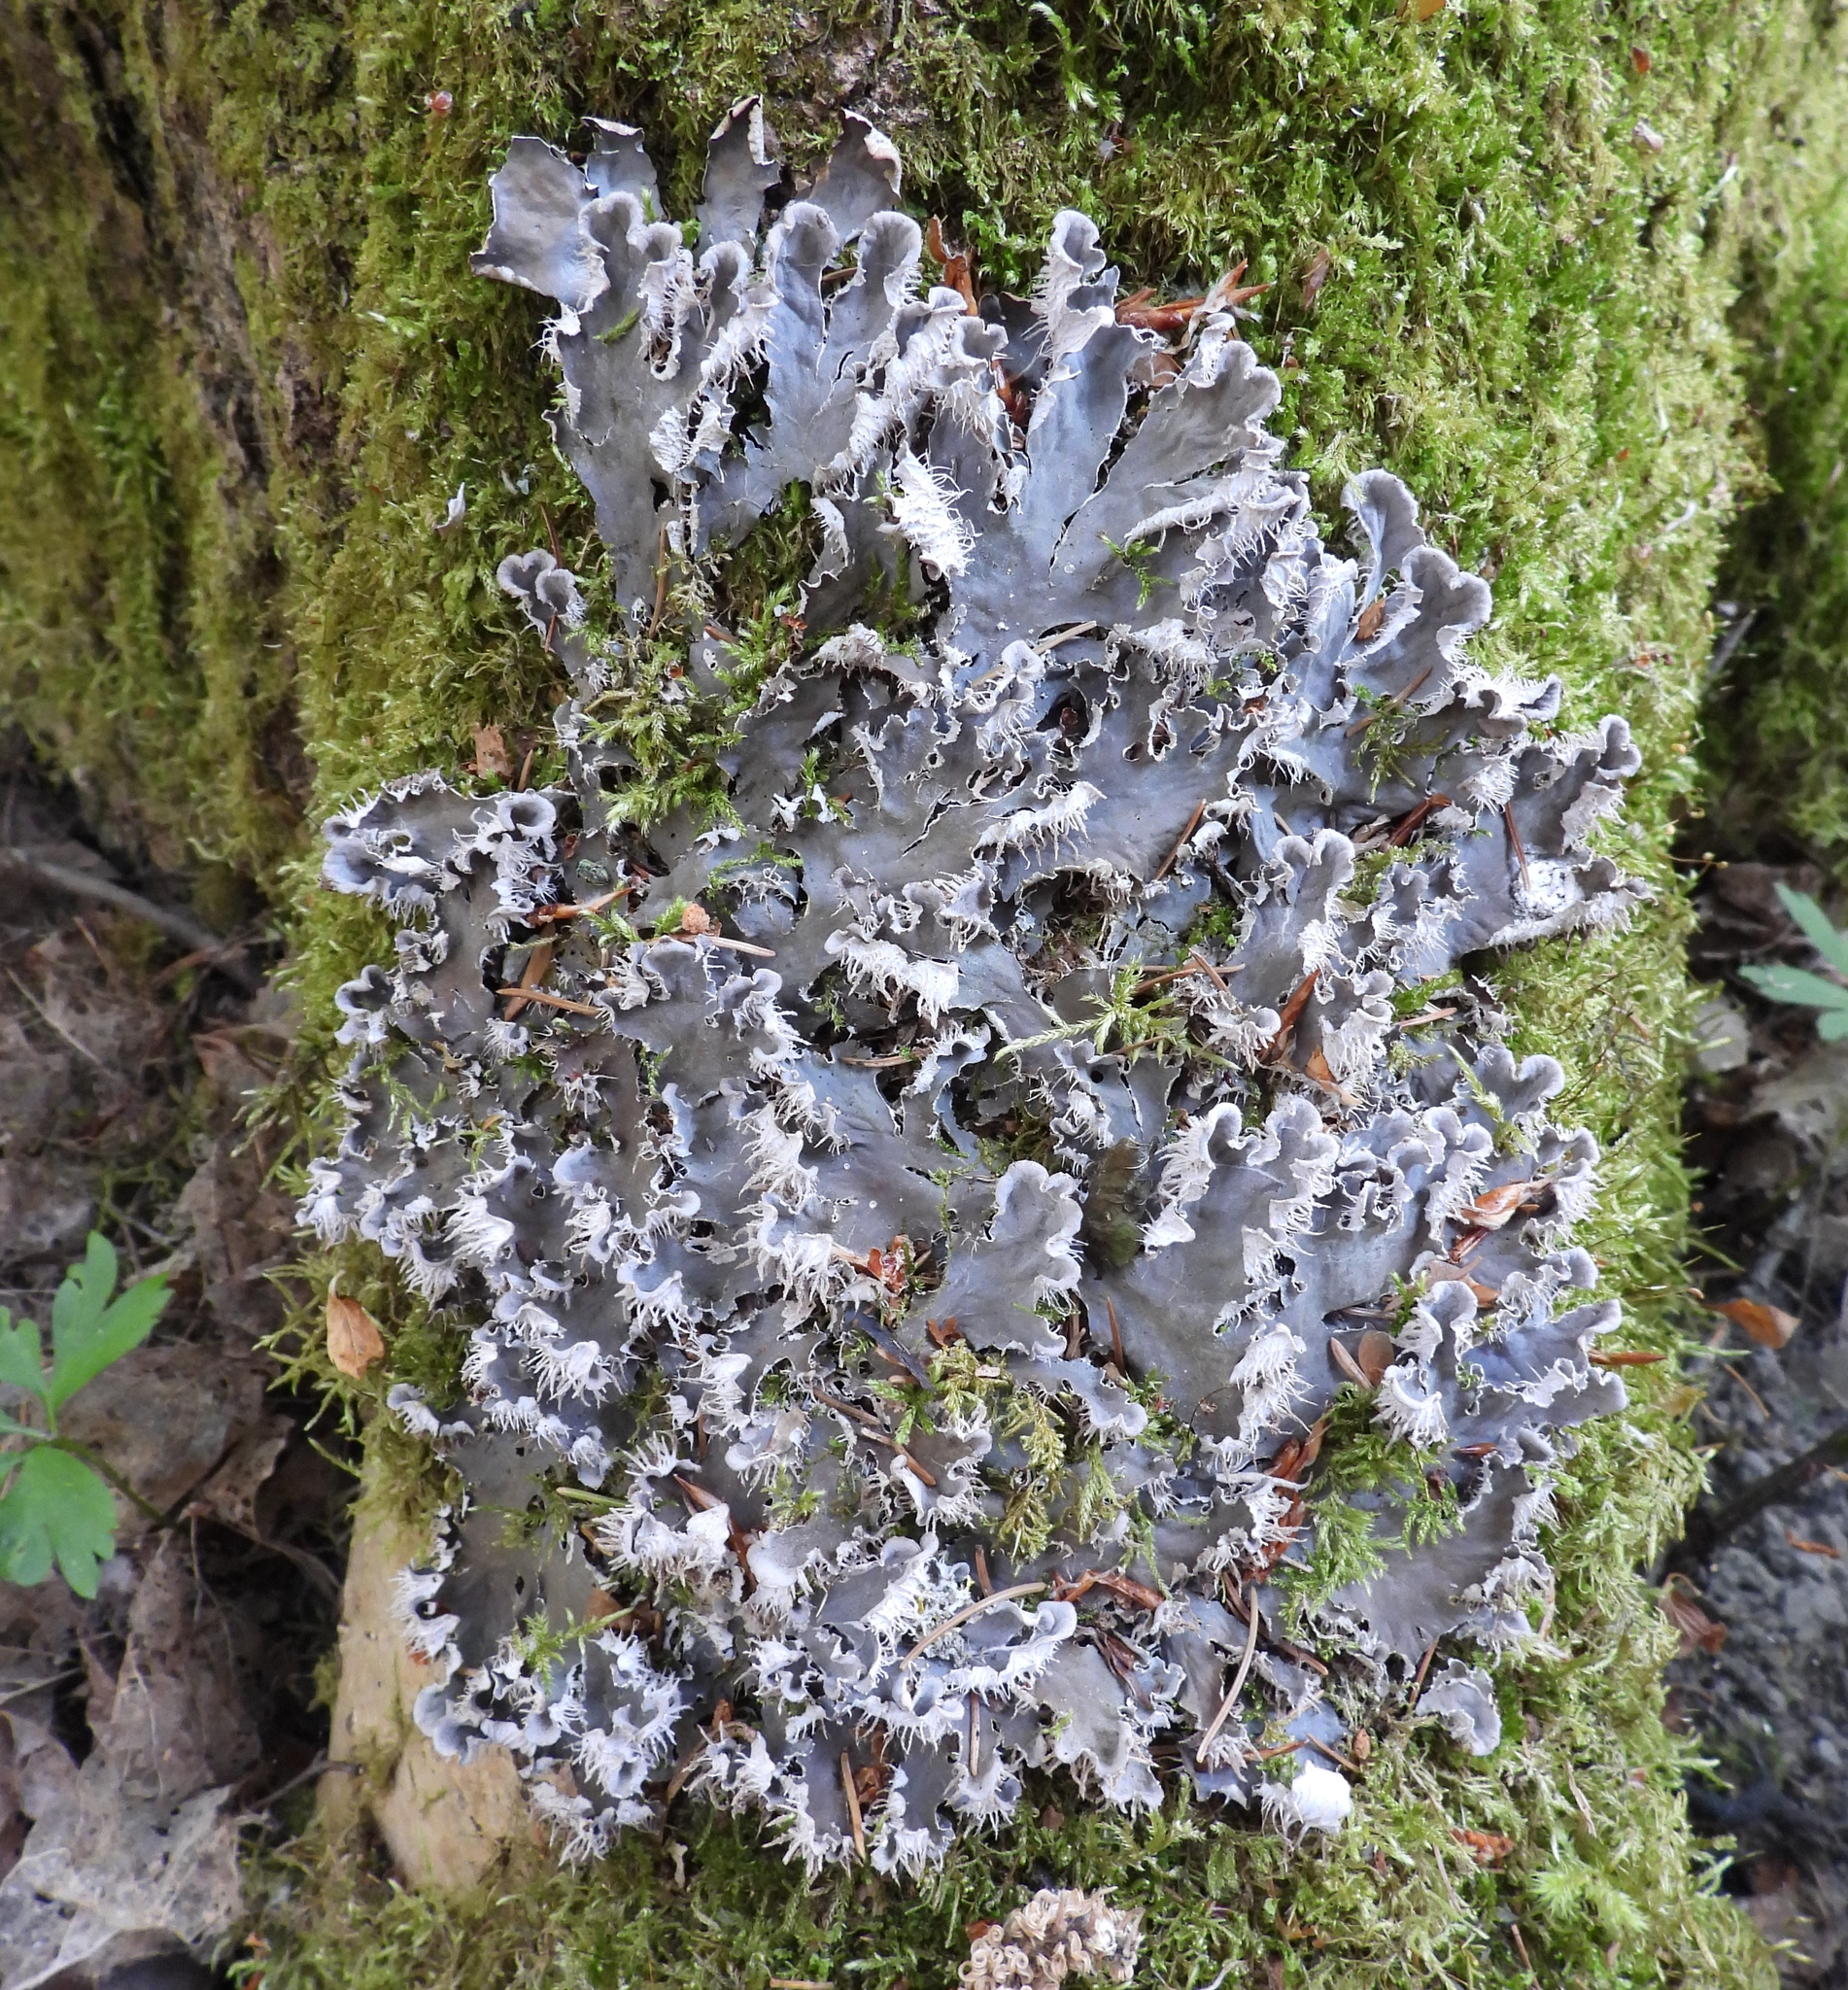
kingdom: Fungi
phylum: Ascomycota
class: Lecanoromycetes
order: Peltigerales
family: Peltigeraceae
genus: Peltigera
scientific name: Peltigera canina
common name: Dog pelt lichen
